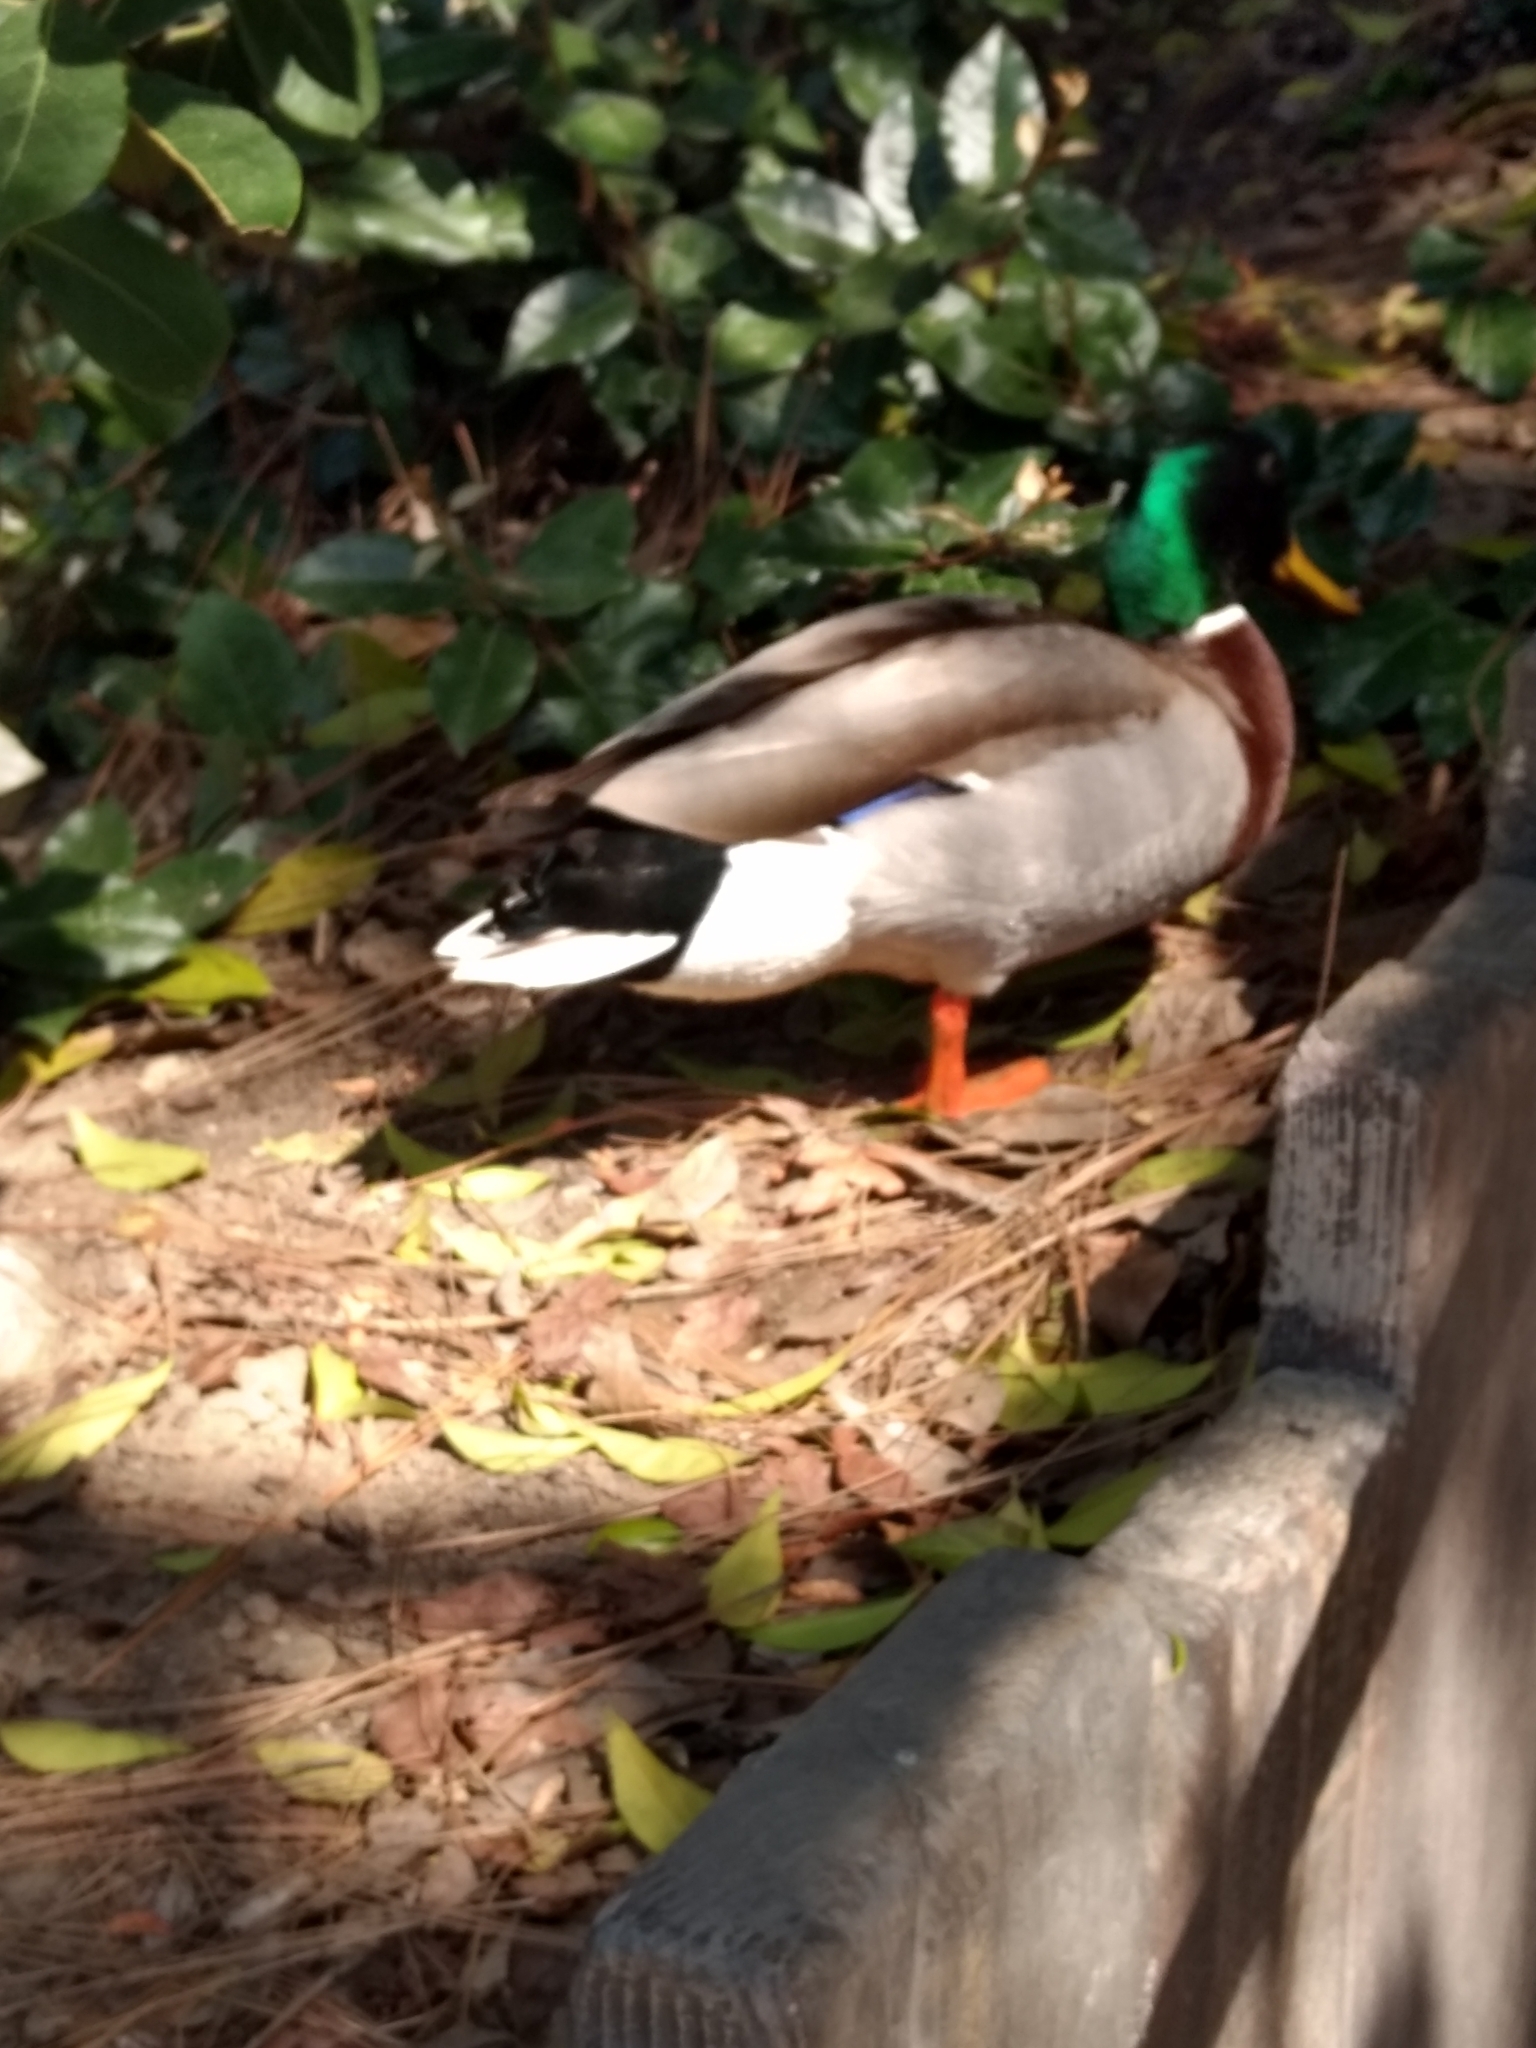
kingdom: Animalia
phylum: Chordata
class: Aves
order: Anseriformes
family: Anatidae
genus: Anas
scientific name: Anas platyrhynchos
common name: Mallard
